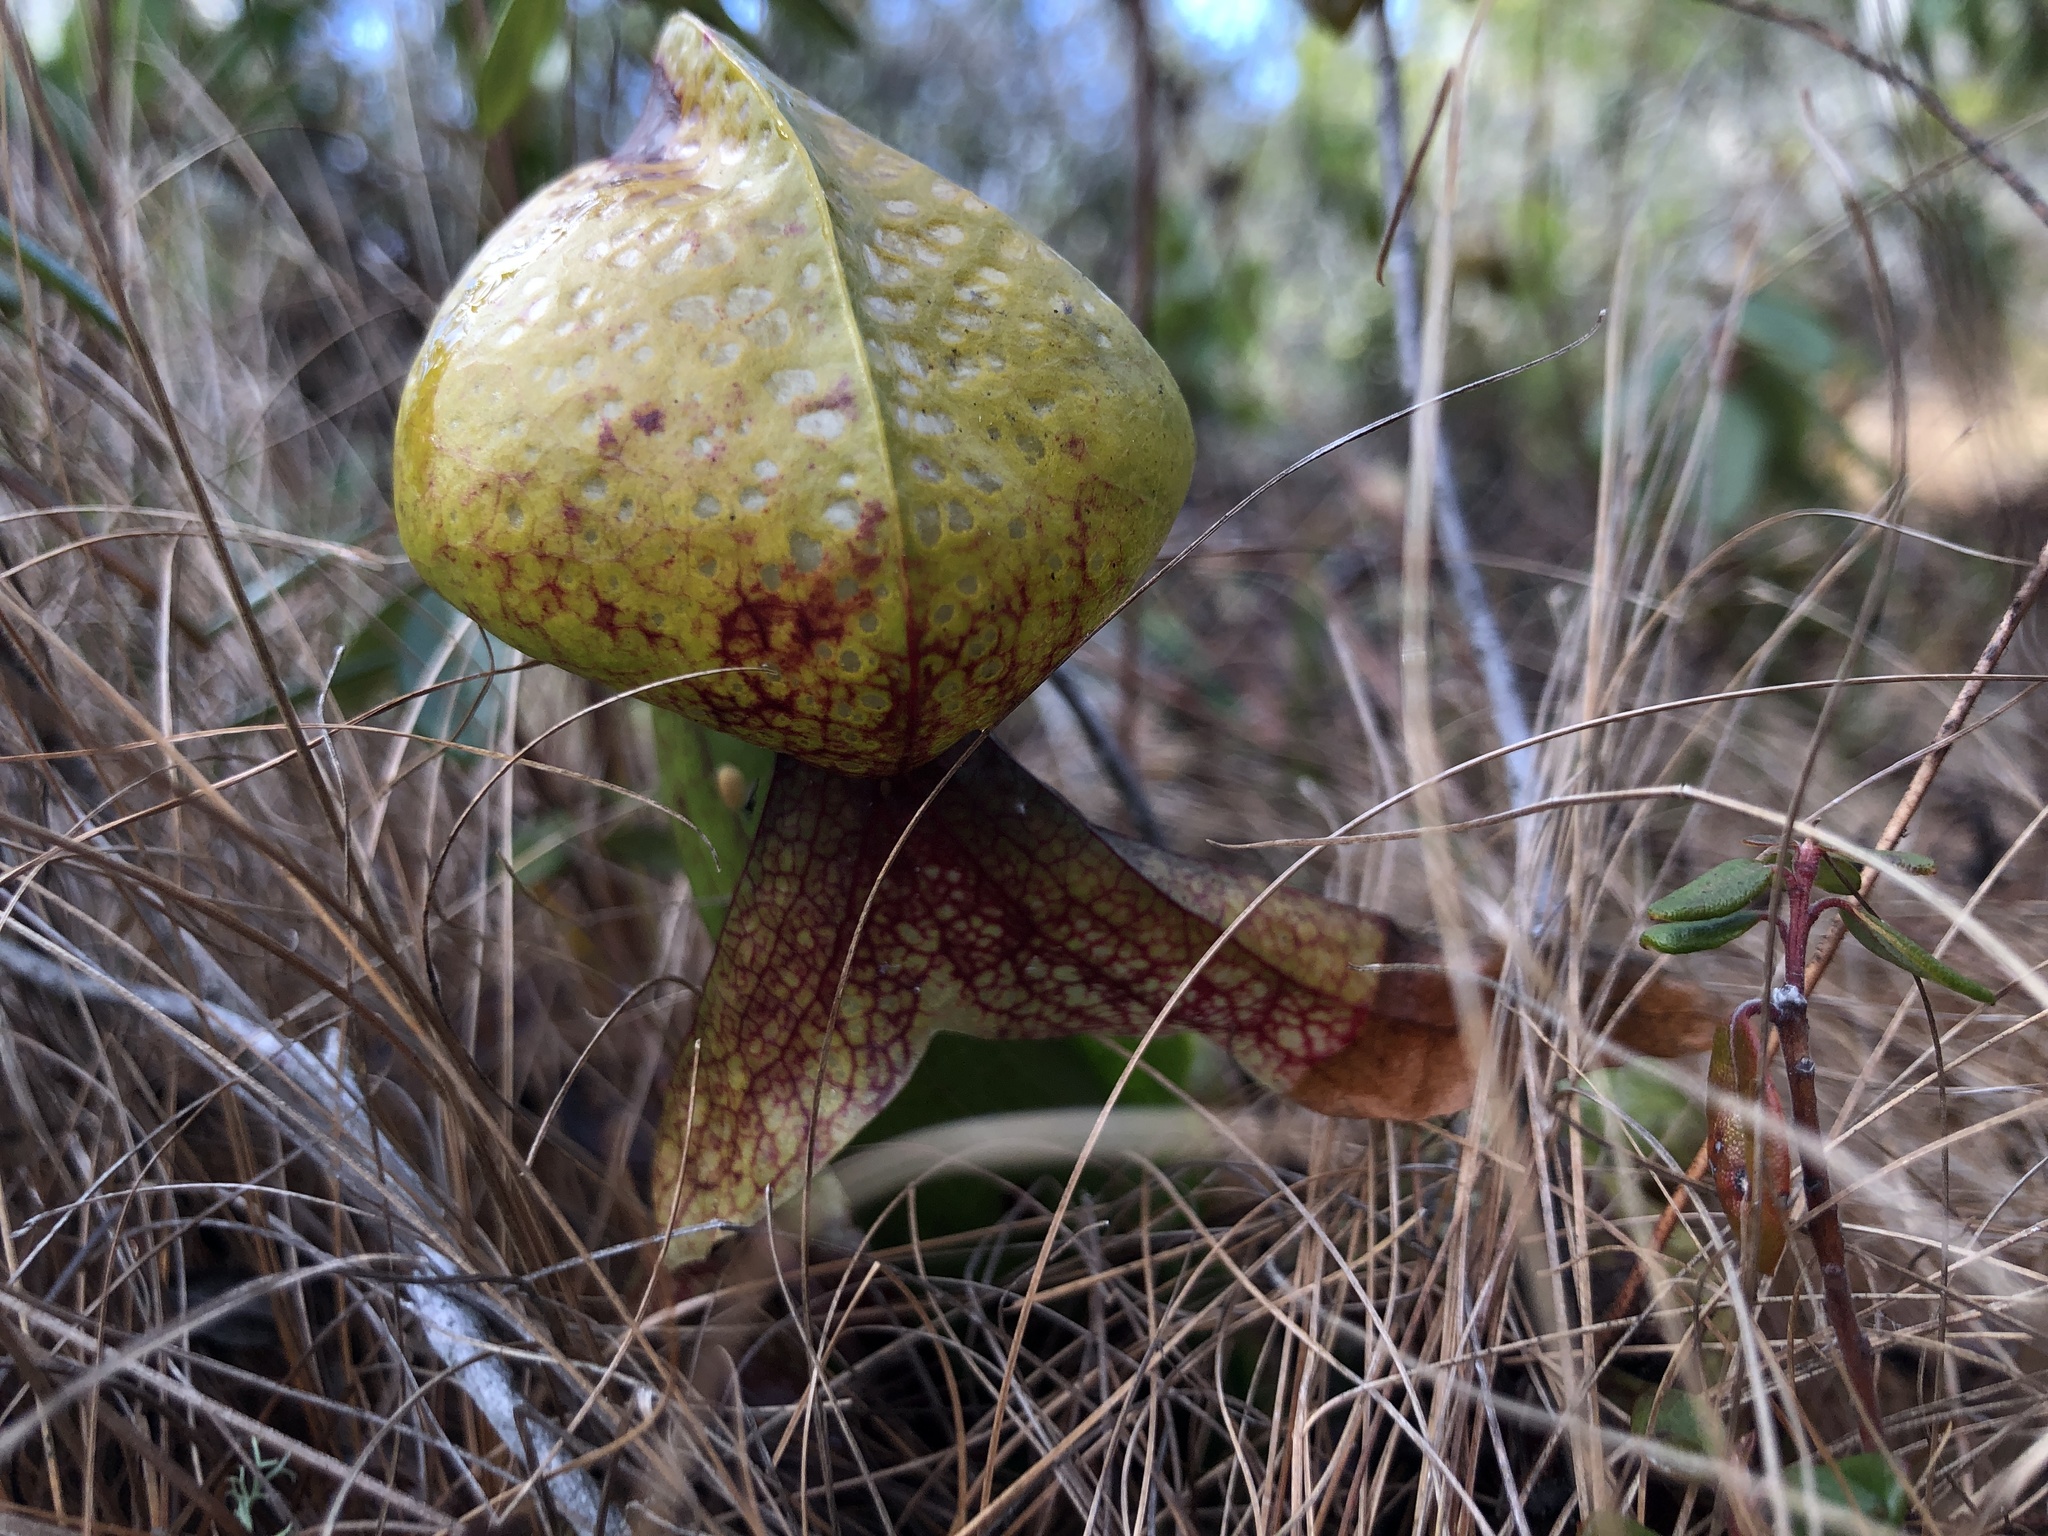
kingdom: Plantae
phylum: Tracheophyta
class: Magnoliopsida
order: Ericales
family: Sarraceniaceae
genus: Darlingtonia
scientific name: Darlingtonia californica
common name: California pitcher plant
